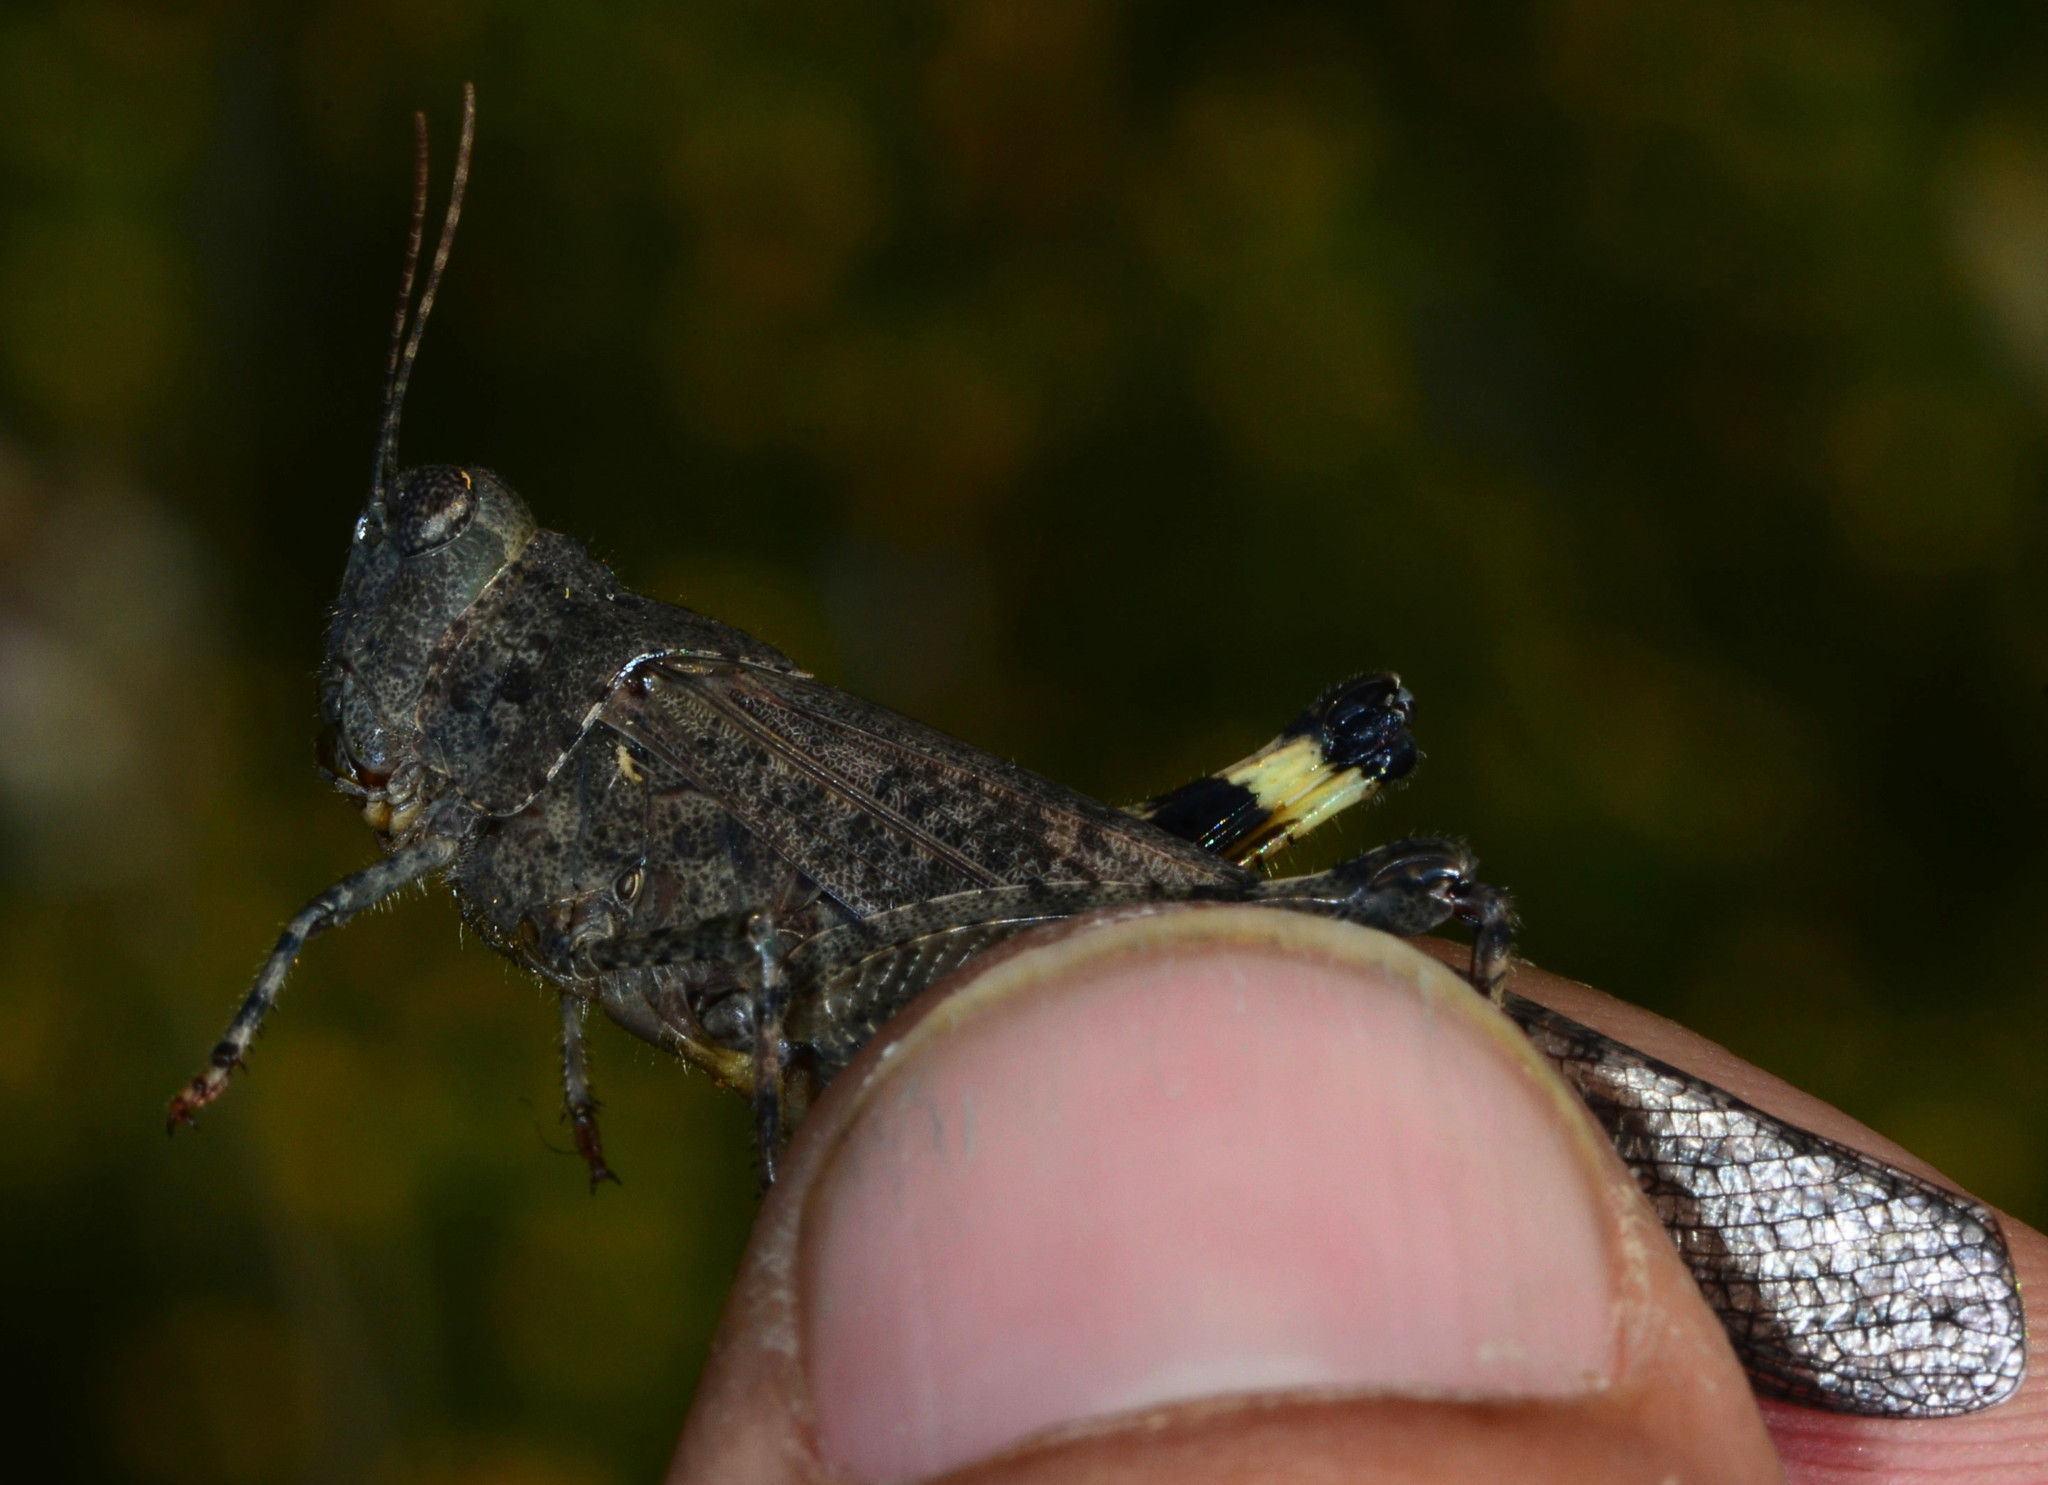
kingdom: Animalia
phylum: Arthropoda
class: Insecta
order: Orthoptera
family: Acrididae
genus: Trimerotropis
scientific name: Trimerotropis pallidipennis
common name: Pallid-winged grasshopper
